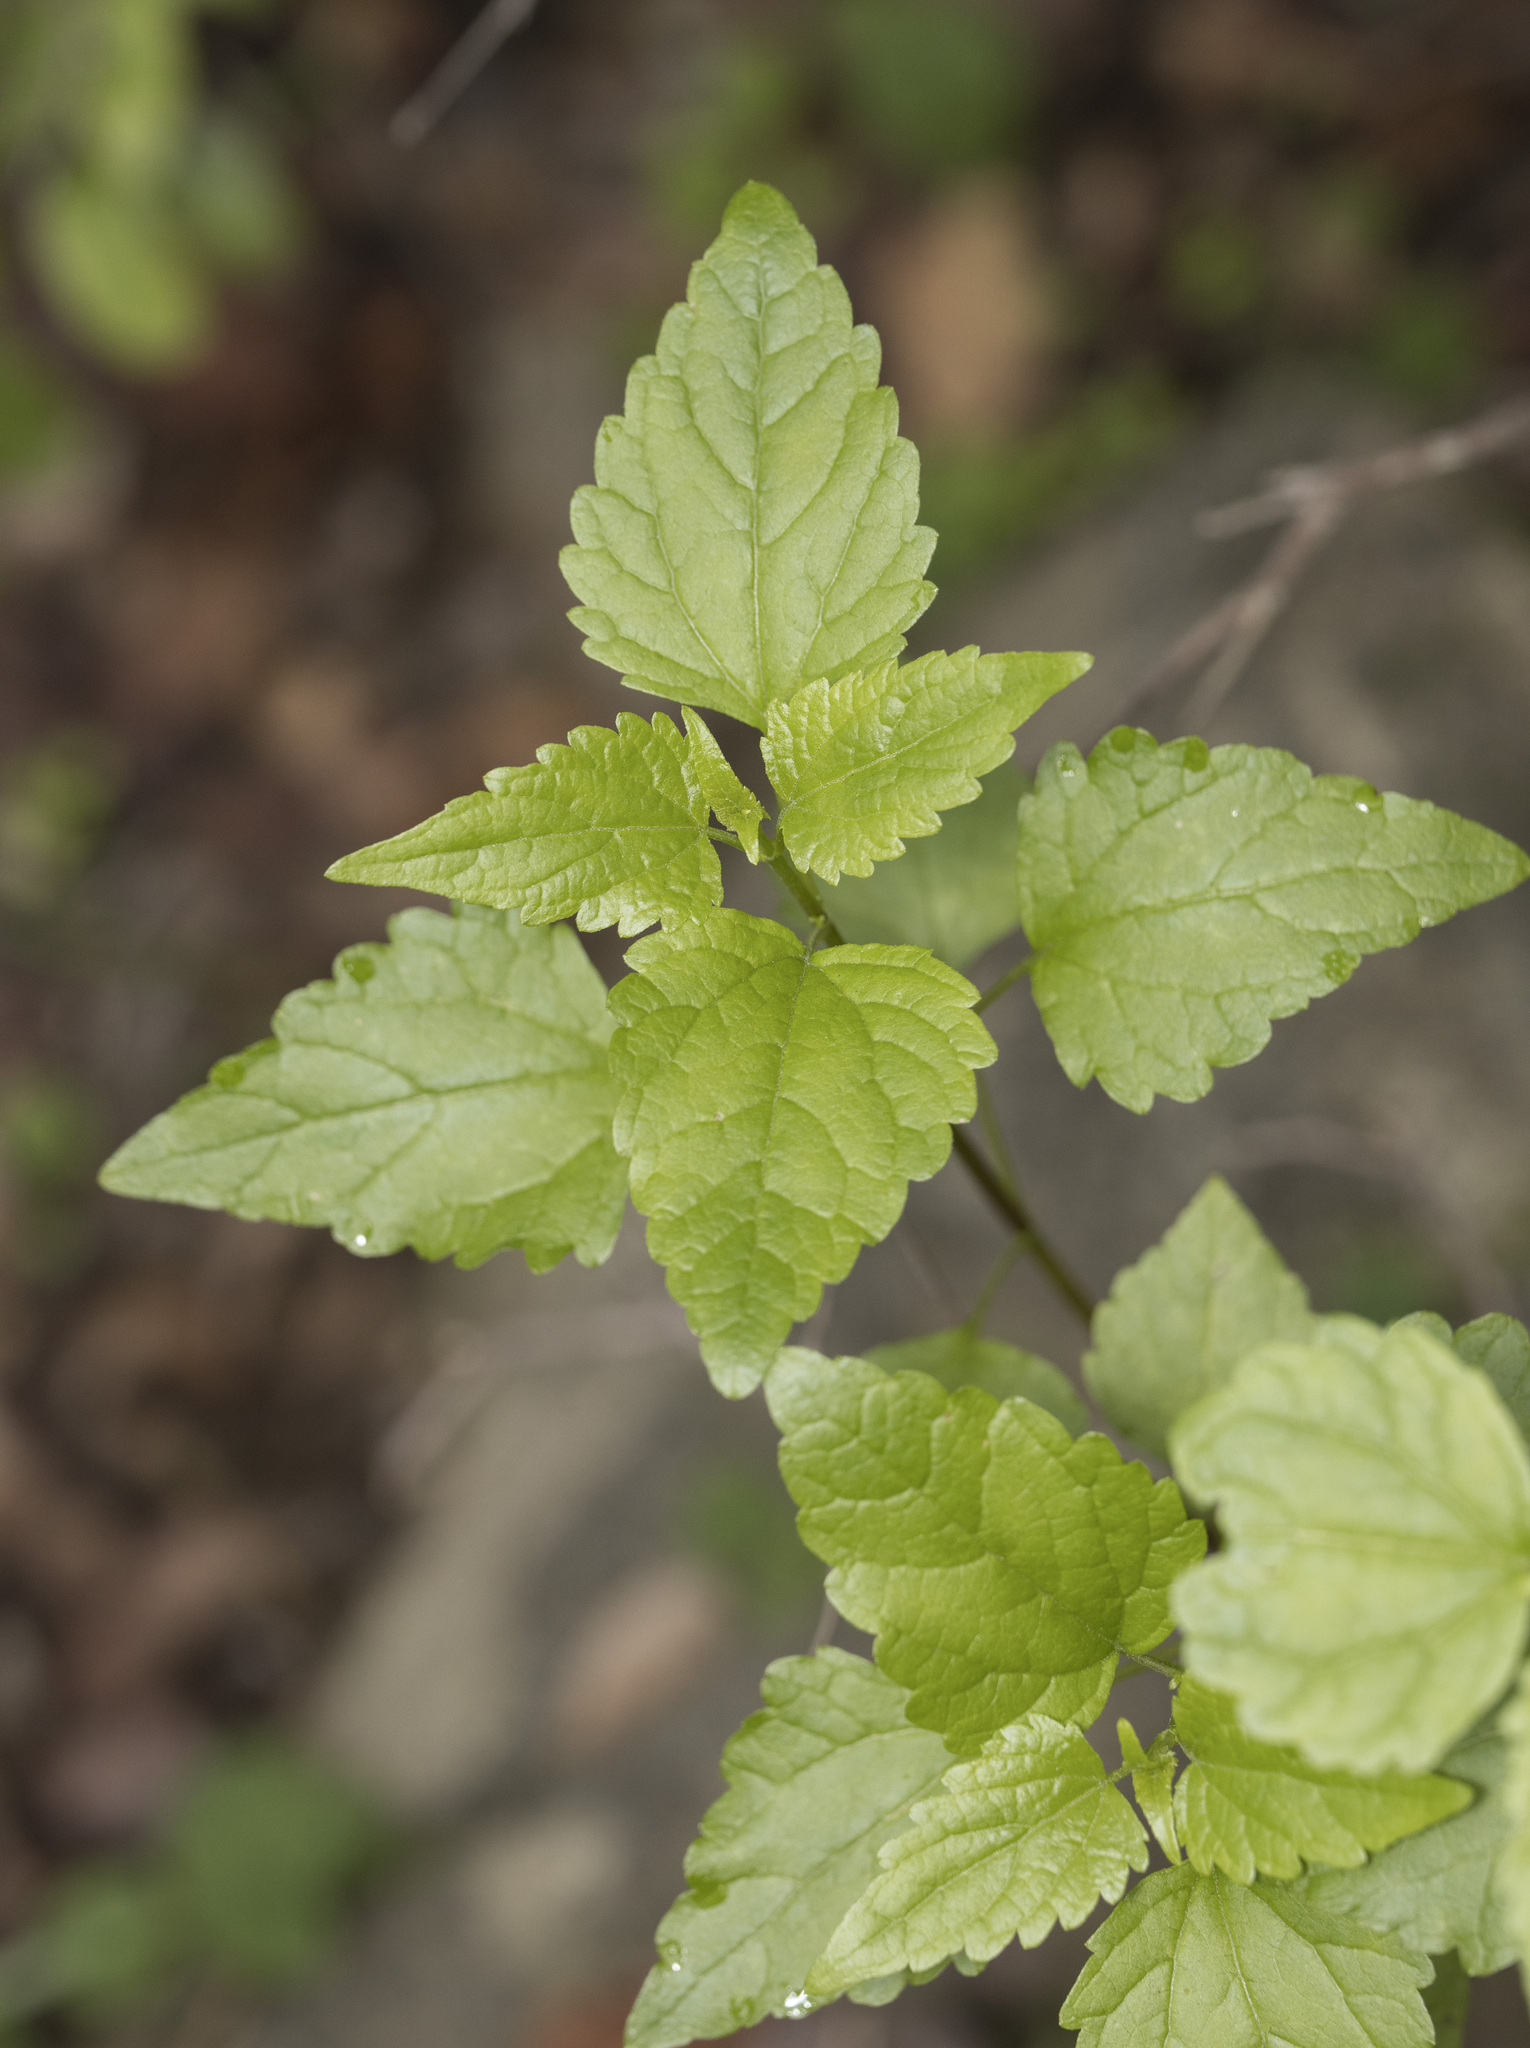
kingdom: Plantae
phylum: Tracheophyta
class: Magnoliopsida
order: Asterales
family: Asteraceae
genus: Ageratina
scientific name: Ageratina glechonophylla
